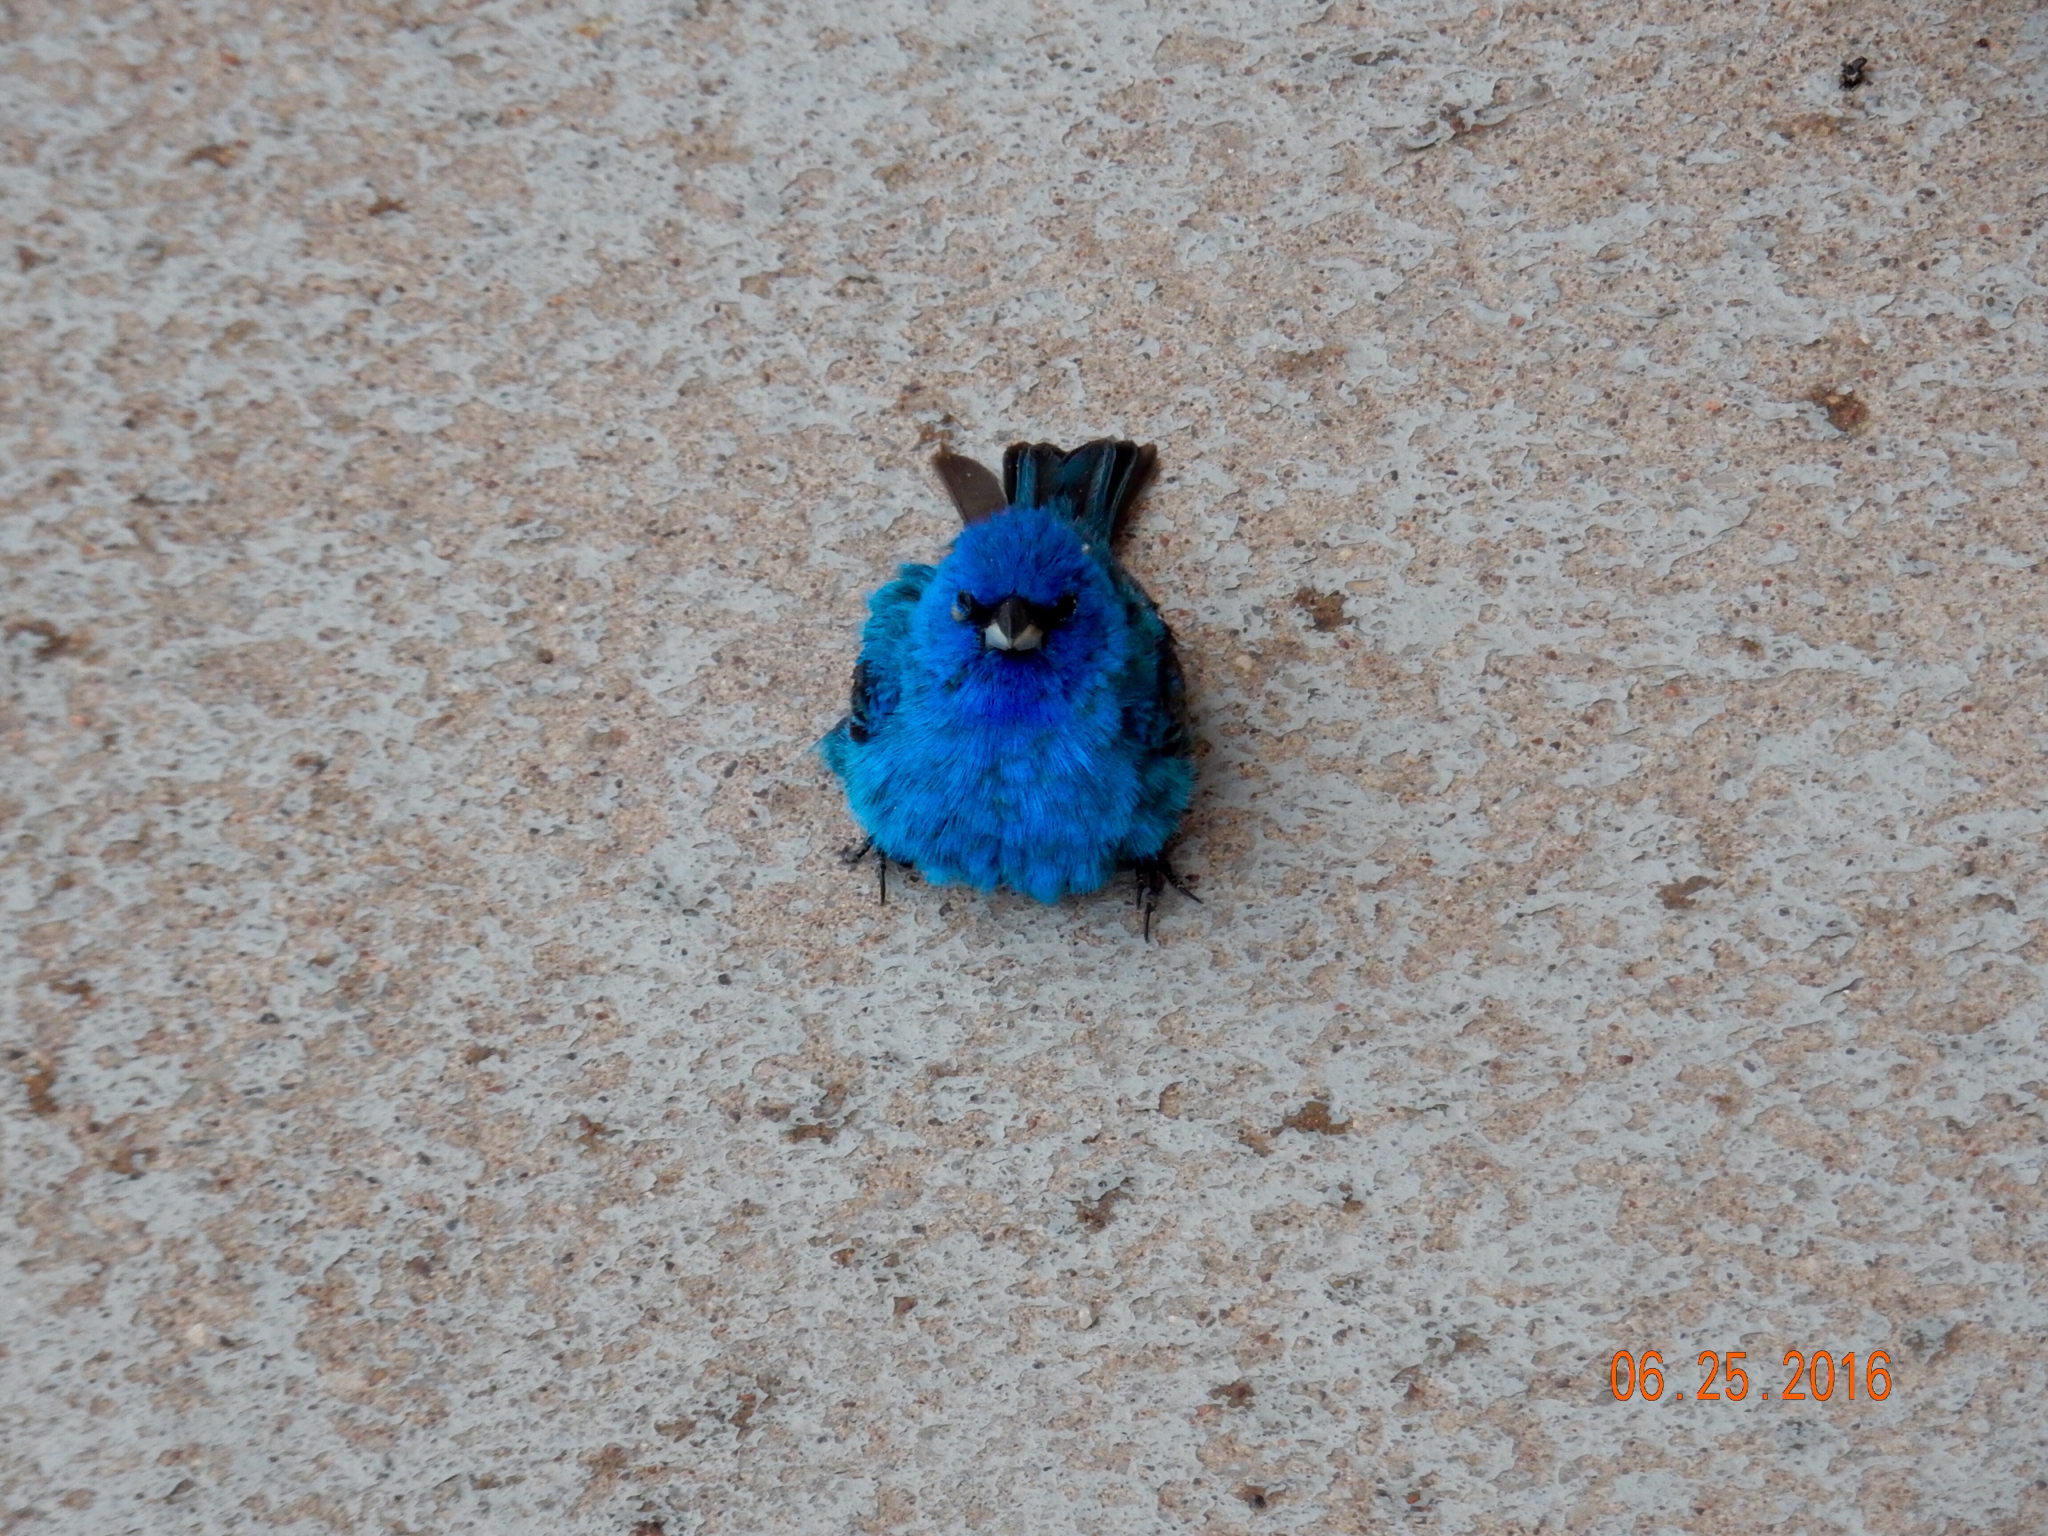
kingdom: Animalia
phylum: Chordata
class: Aves
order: Passeriformes
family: Cardinalidae
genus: Passerina
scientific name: Passerina cyanea
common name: Indigo bunting
